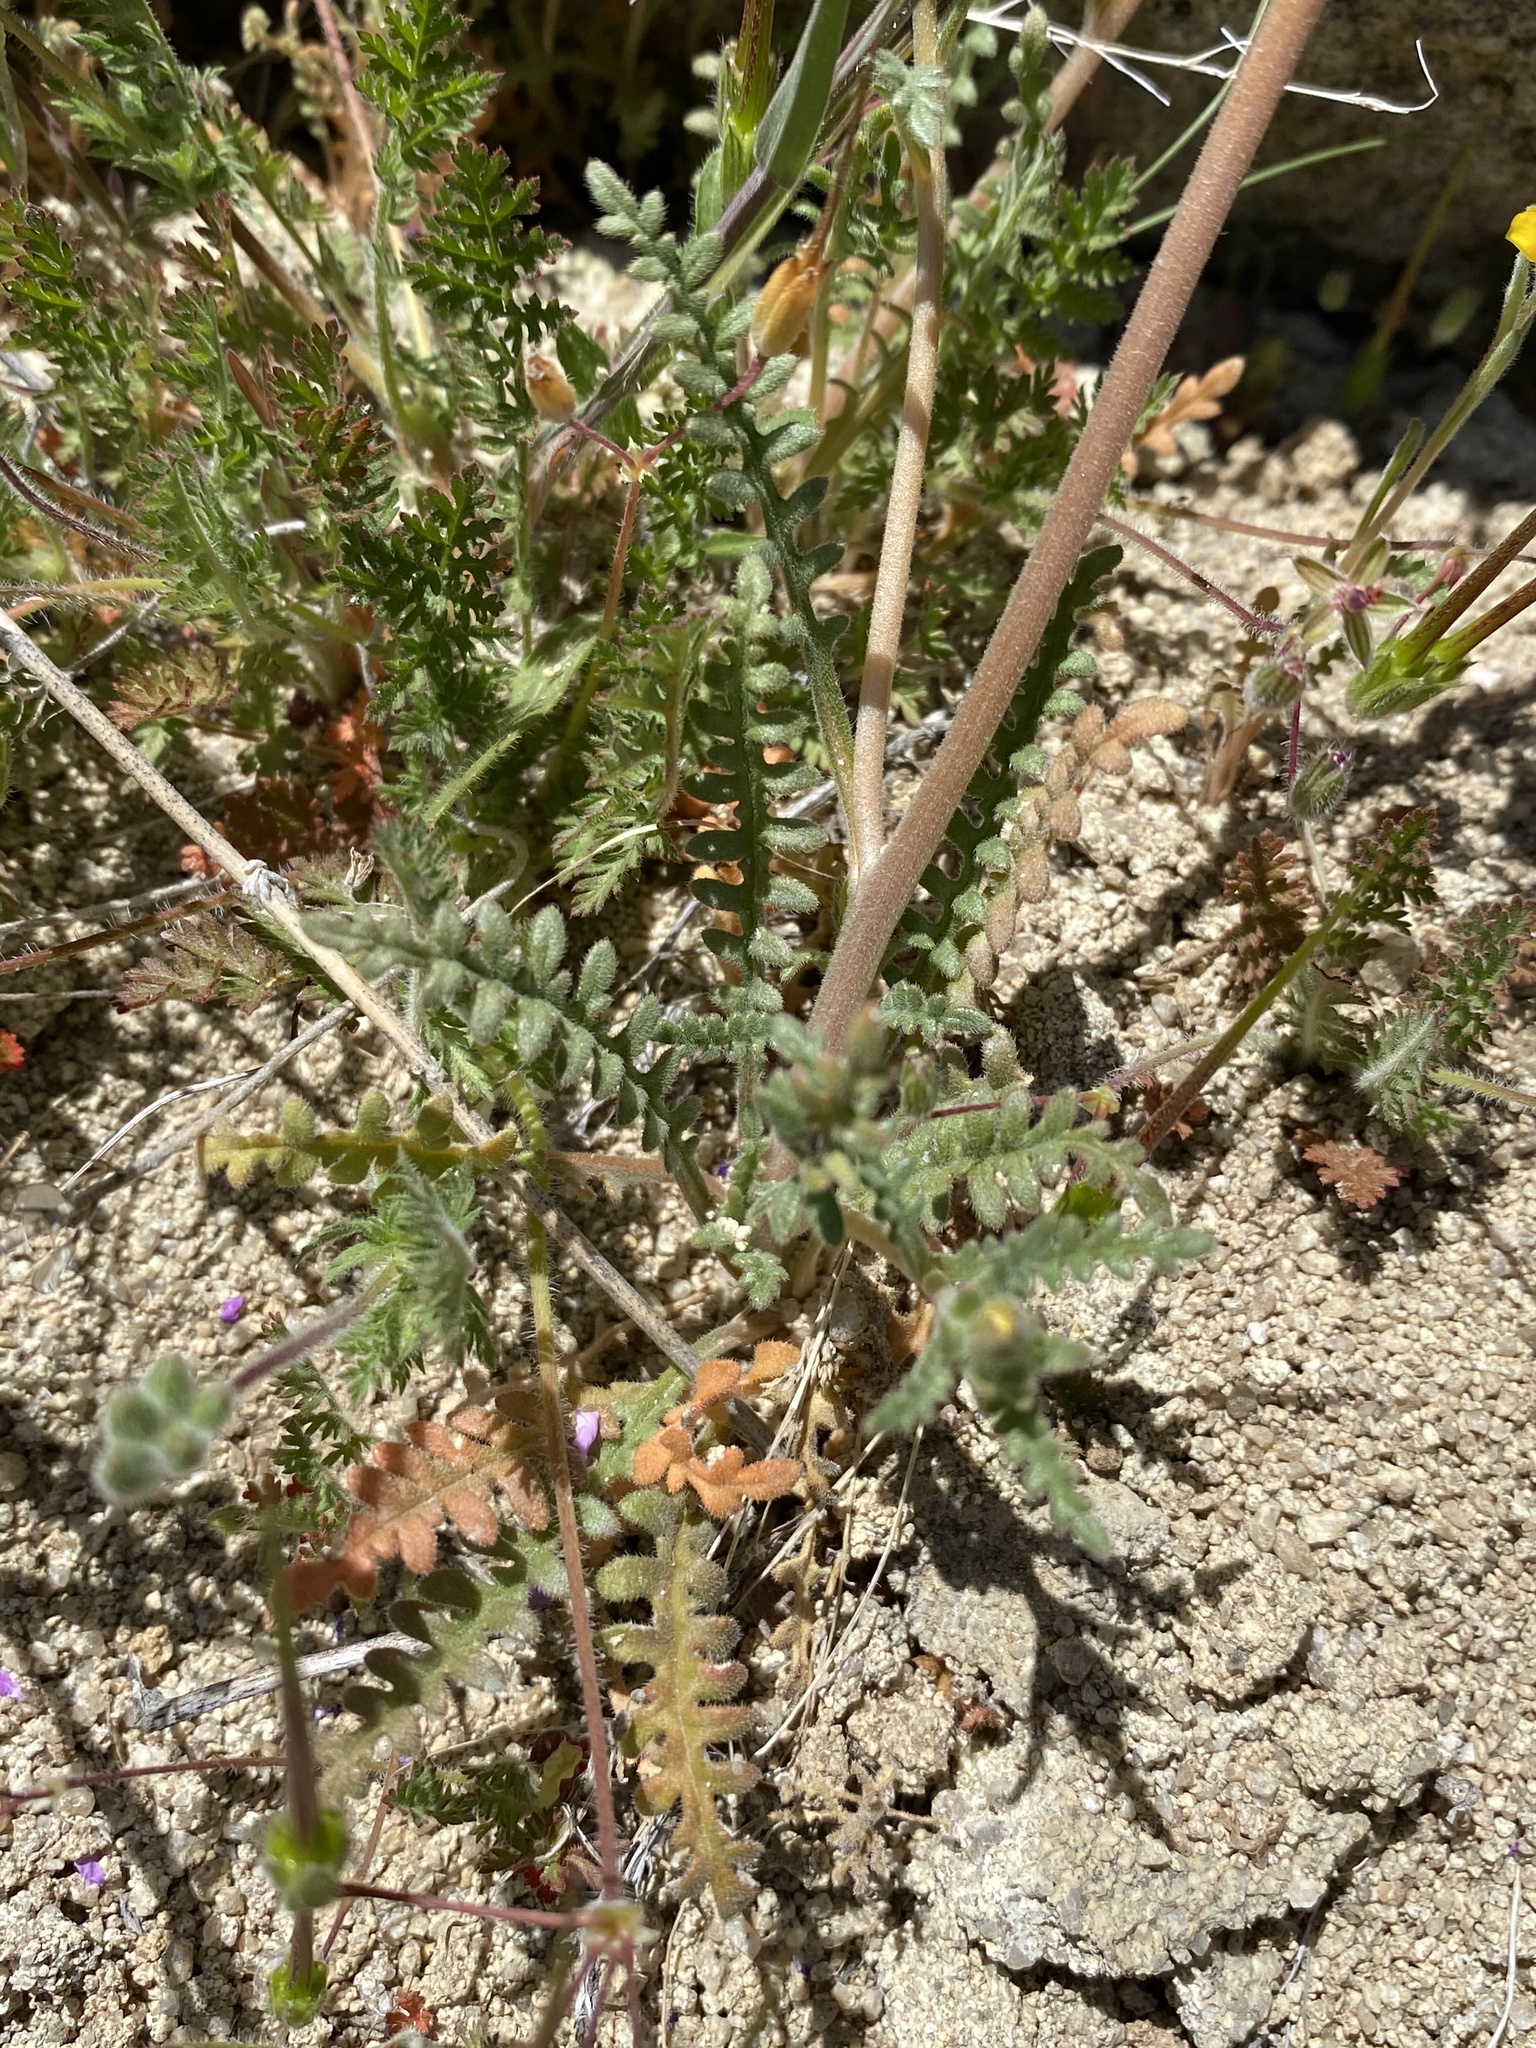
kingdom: Plantae
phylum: Tracheophyta
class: Magnoliopsida
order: Cornales
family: Loasaceae
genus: Mentzelia
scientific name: Mentzelia albicaulis
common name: White-stem blazingstar
